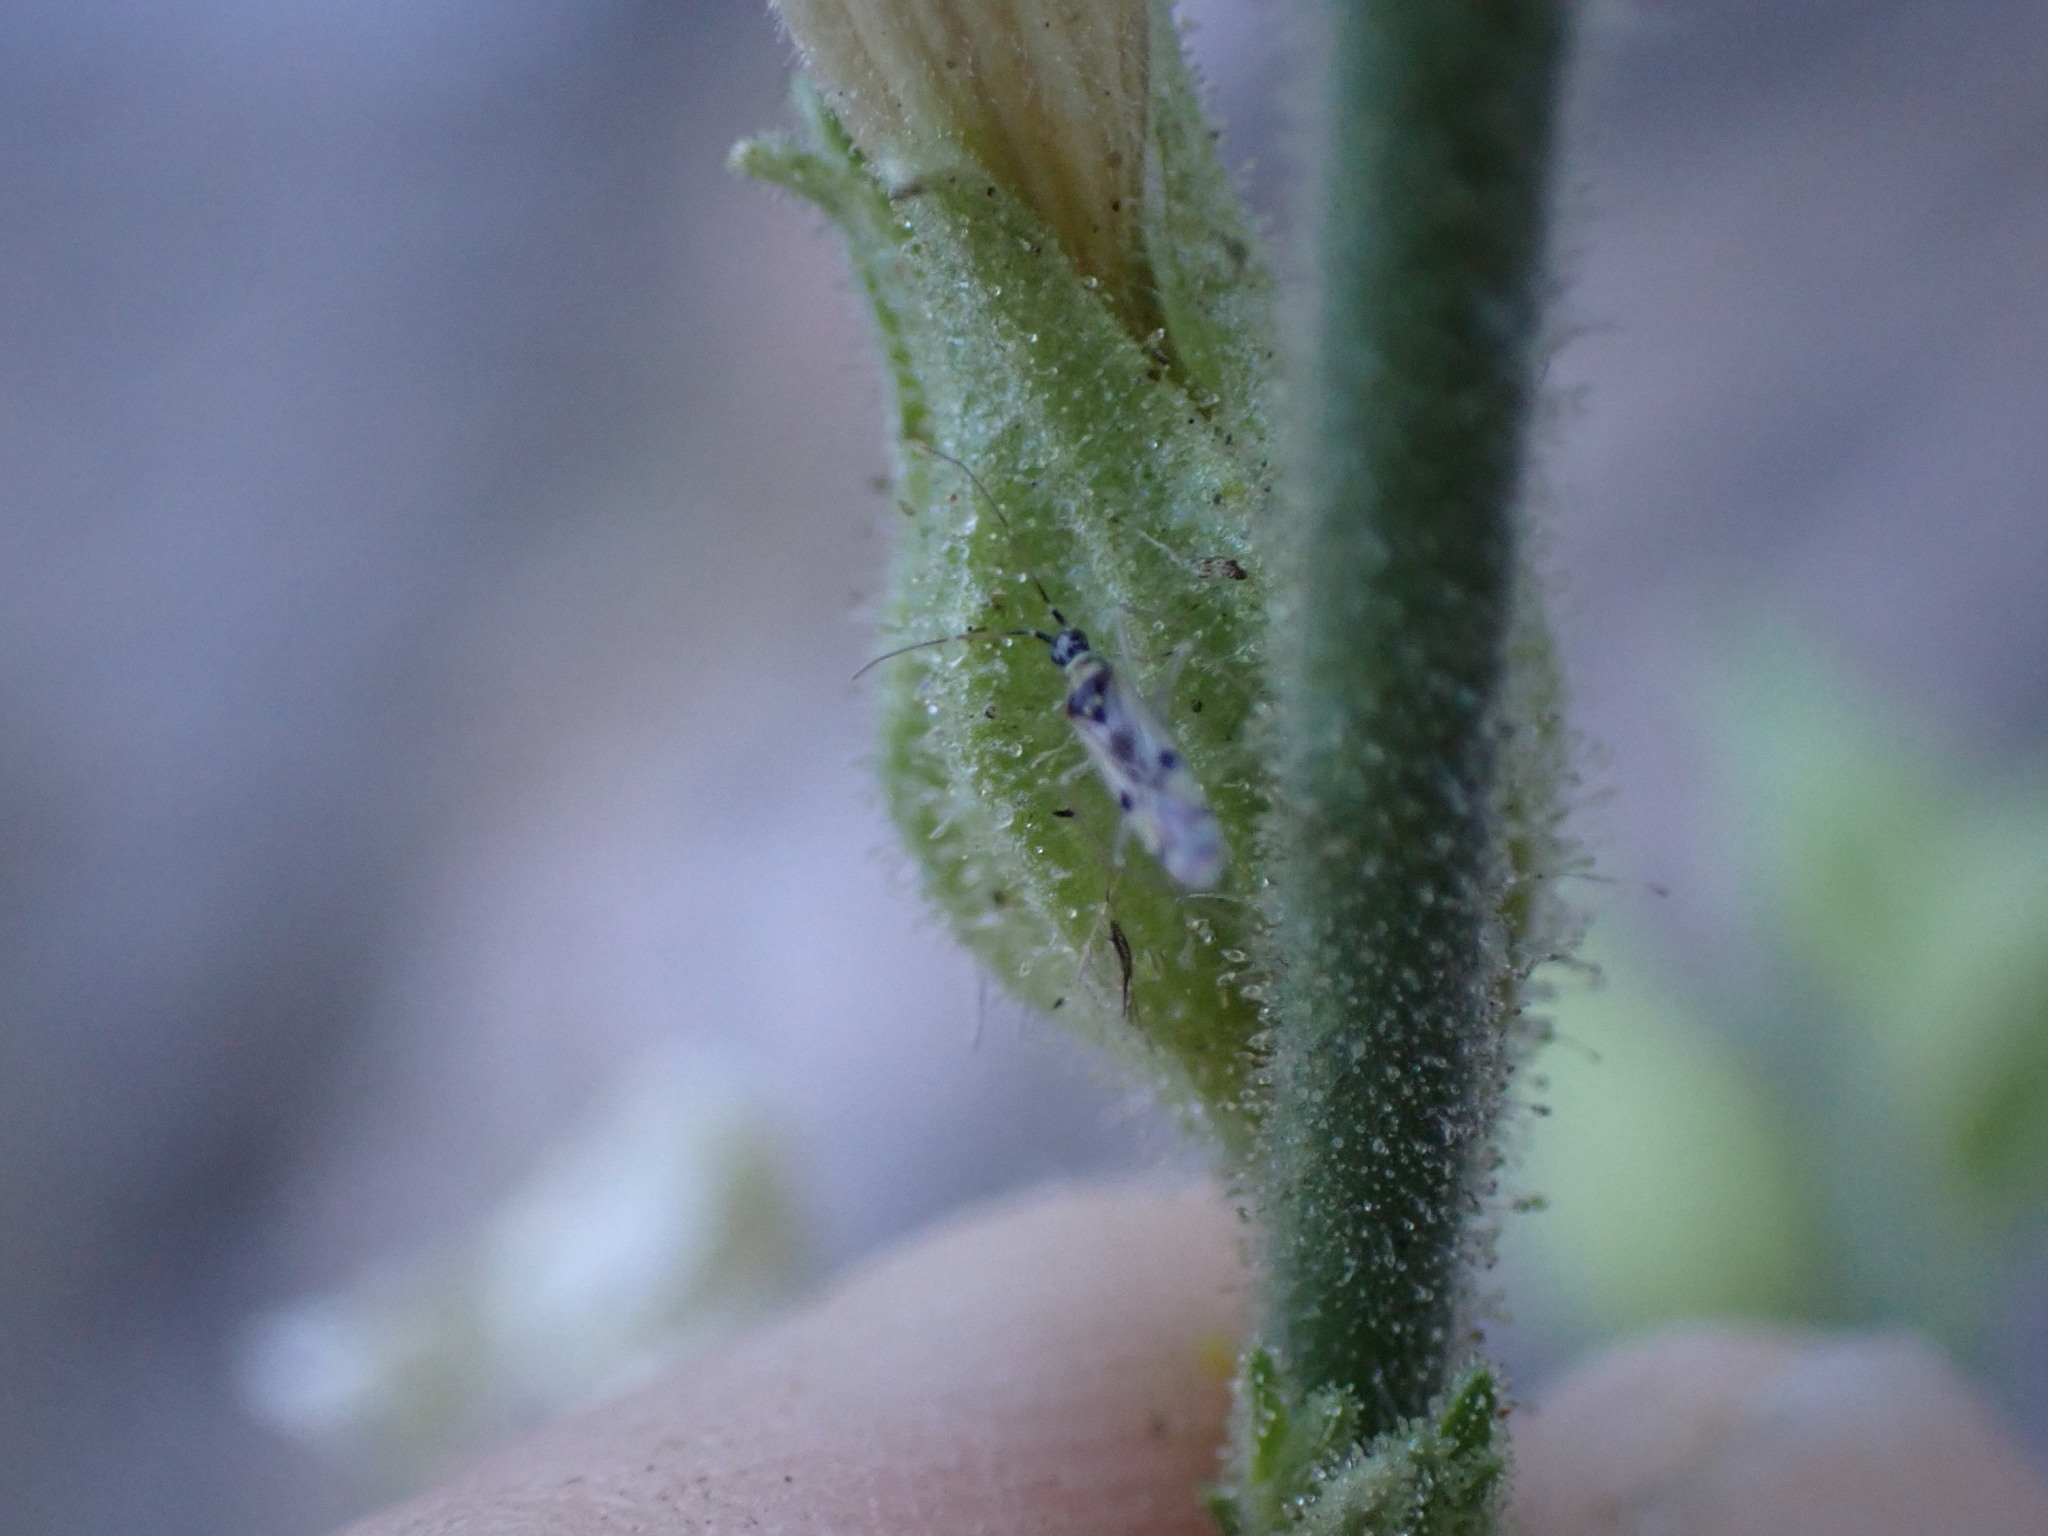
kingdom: Plantae
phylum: Tracheophyta
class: Magnoliopsida
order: Solanales
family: Solanaceae
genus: Nicotiana
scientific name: Nicotiana obtusifolia
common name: Desert tobacco
